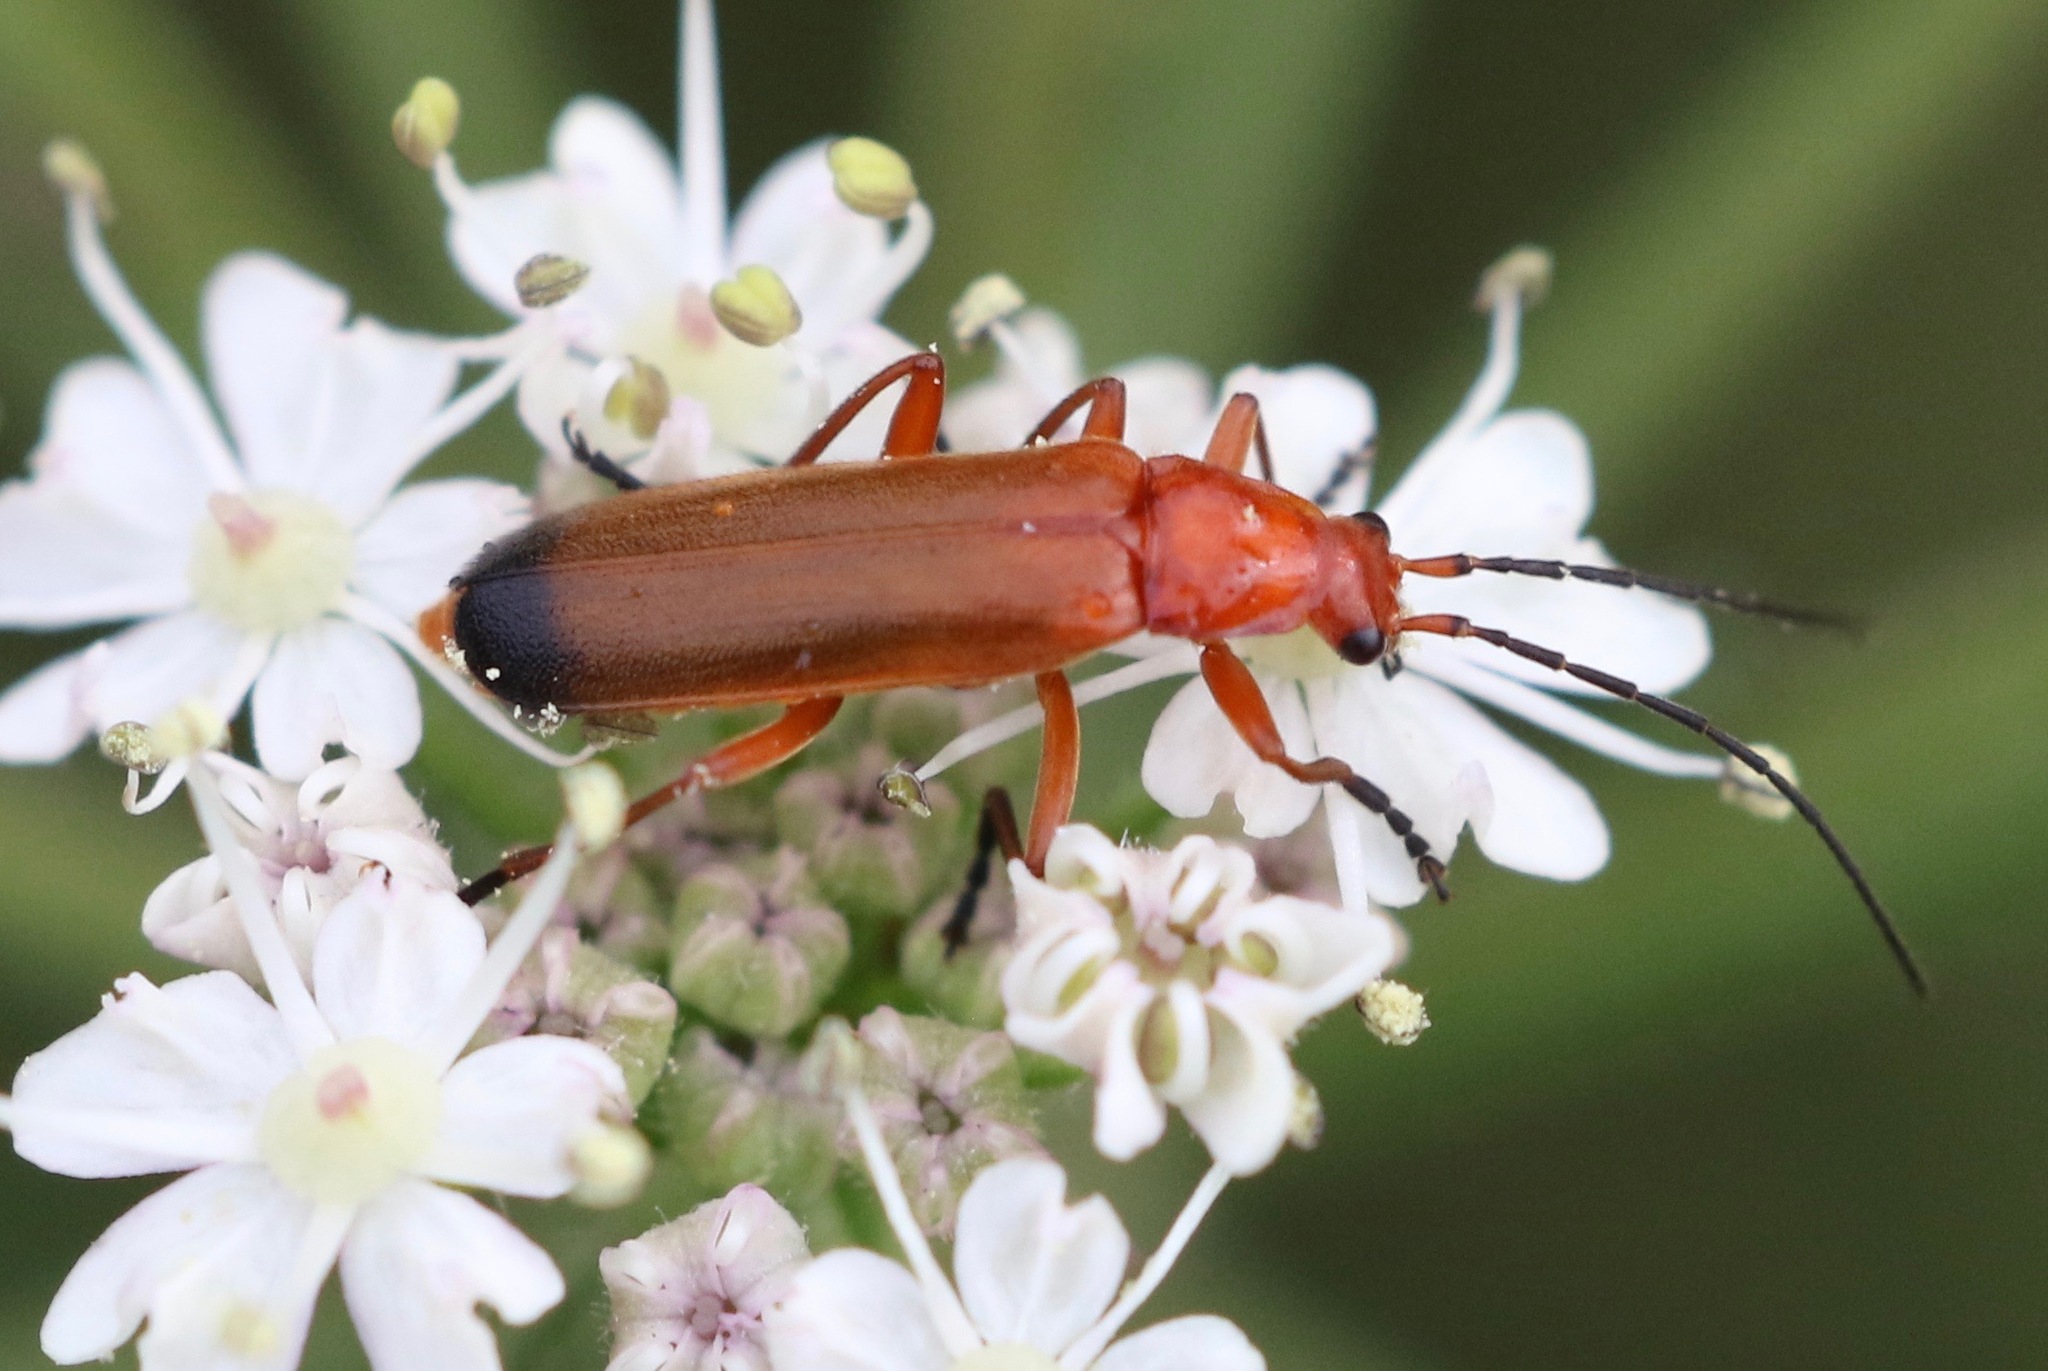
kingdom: Animalia
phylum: Arthropoda
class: Insecta
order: Coleoptera
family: Cantharidae
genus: Rhagonycha
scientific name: Rhagonycha fulva
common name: Common red soldier beetle
